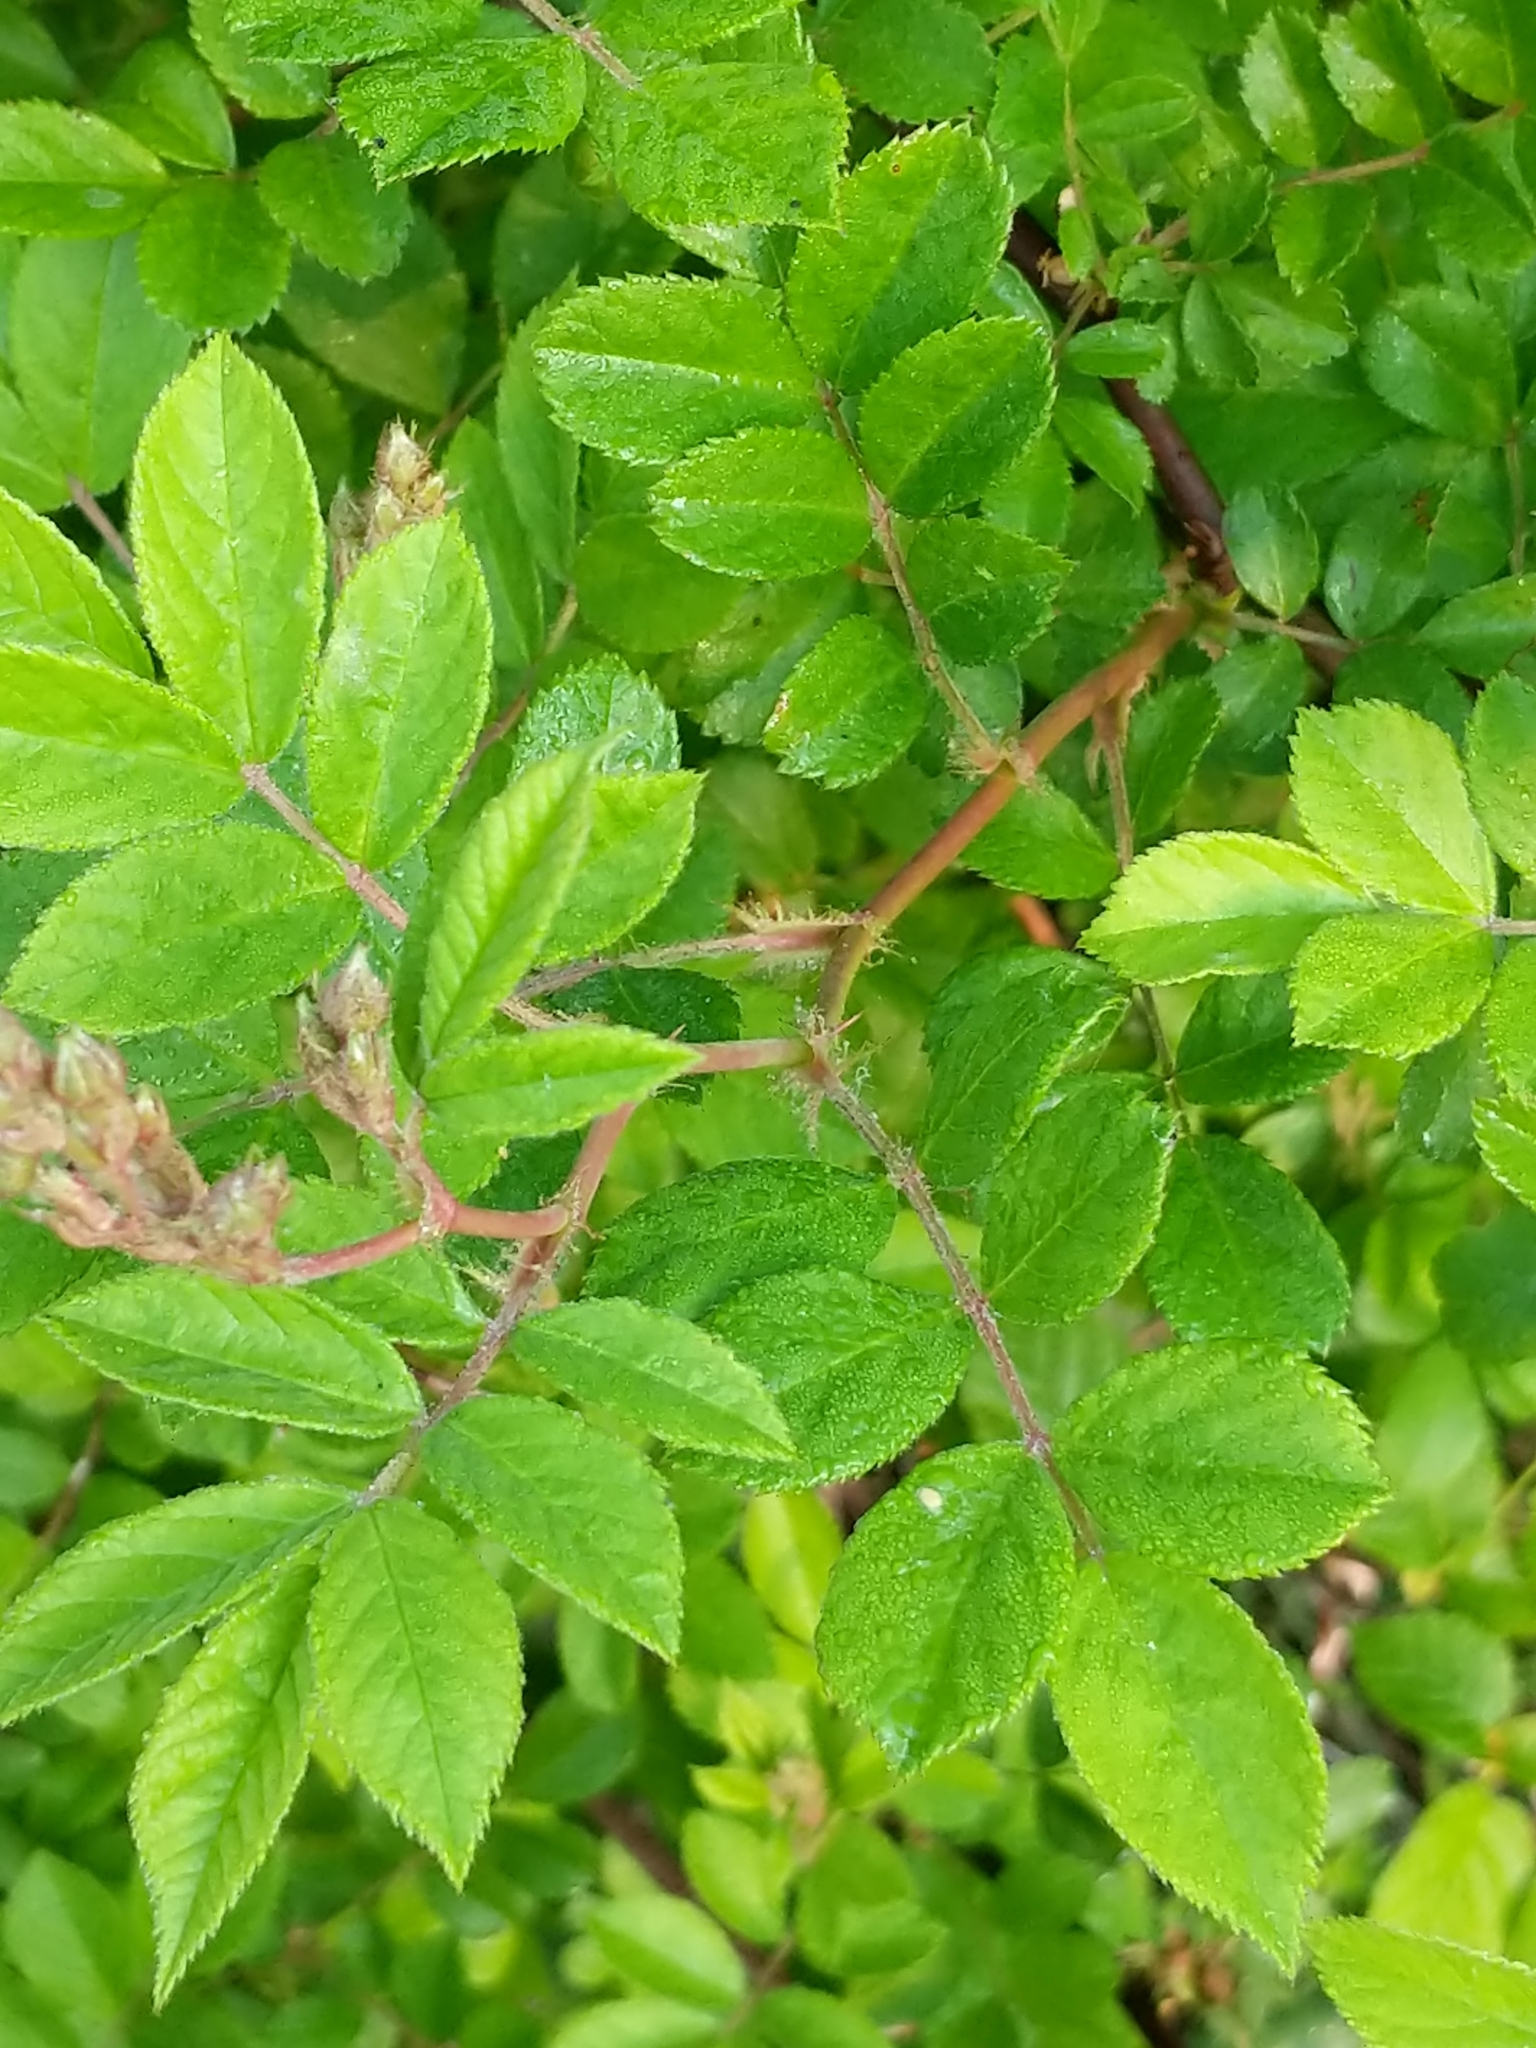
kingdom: Plantae
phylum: Tracheophyta
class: Magnoliopsida
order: Rosales
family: Rosaceae
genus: Rosa
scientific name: Rosa multiflora
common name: Multiflora rose
